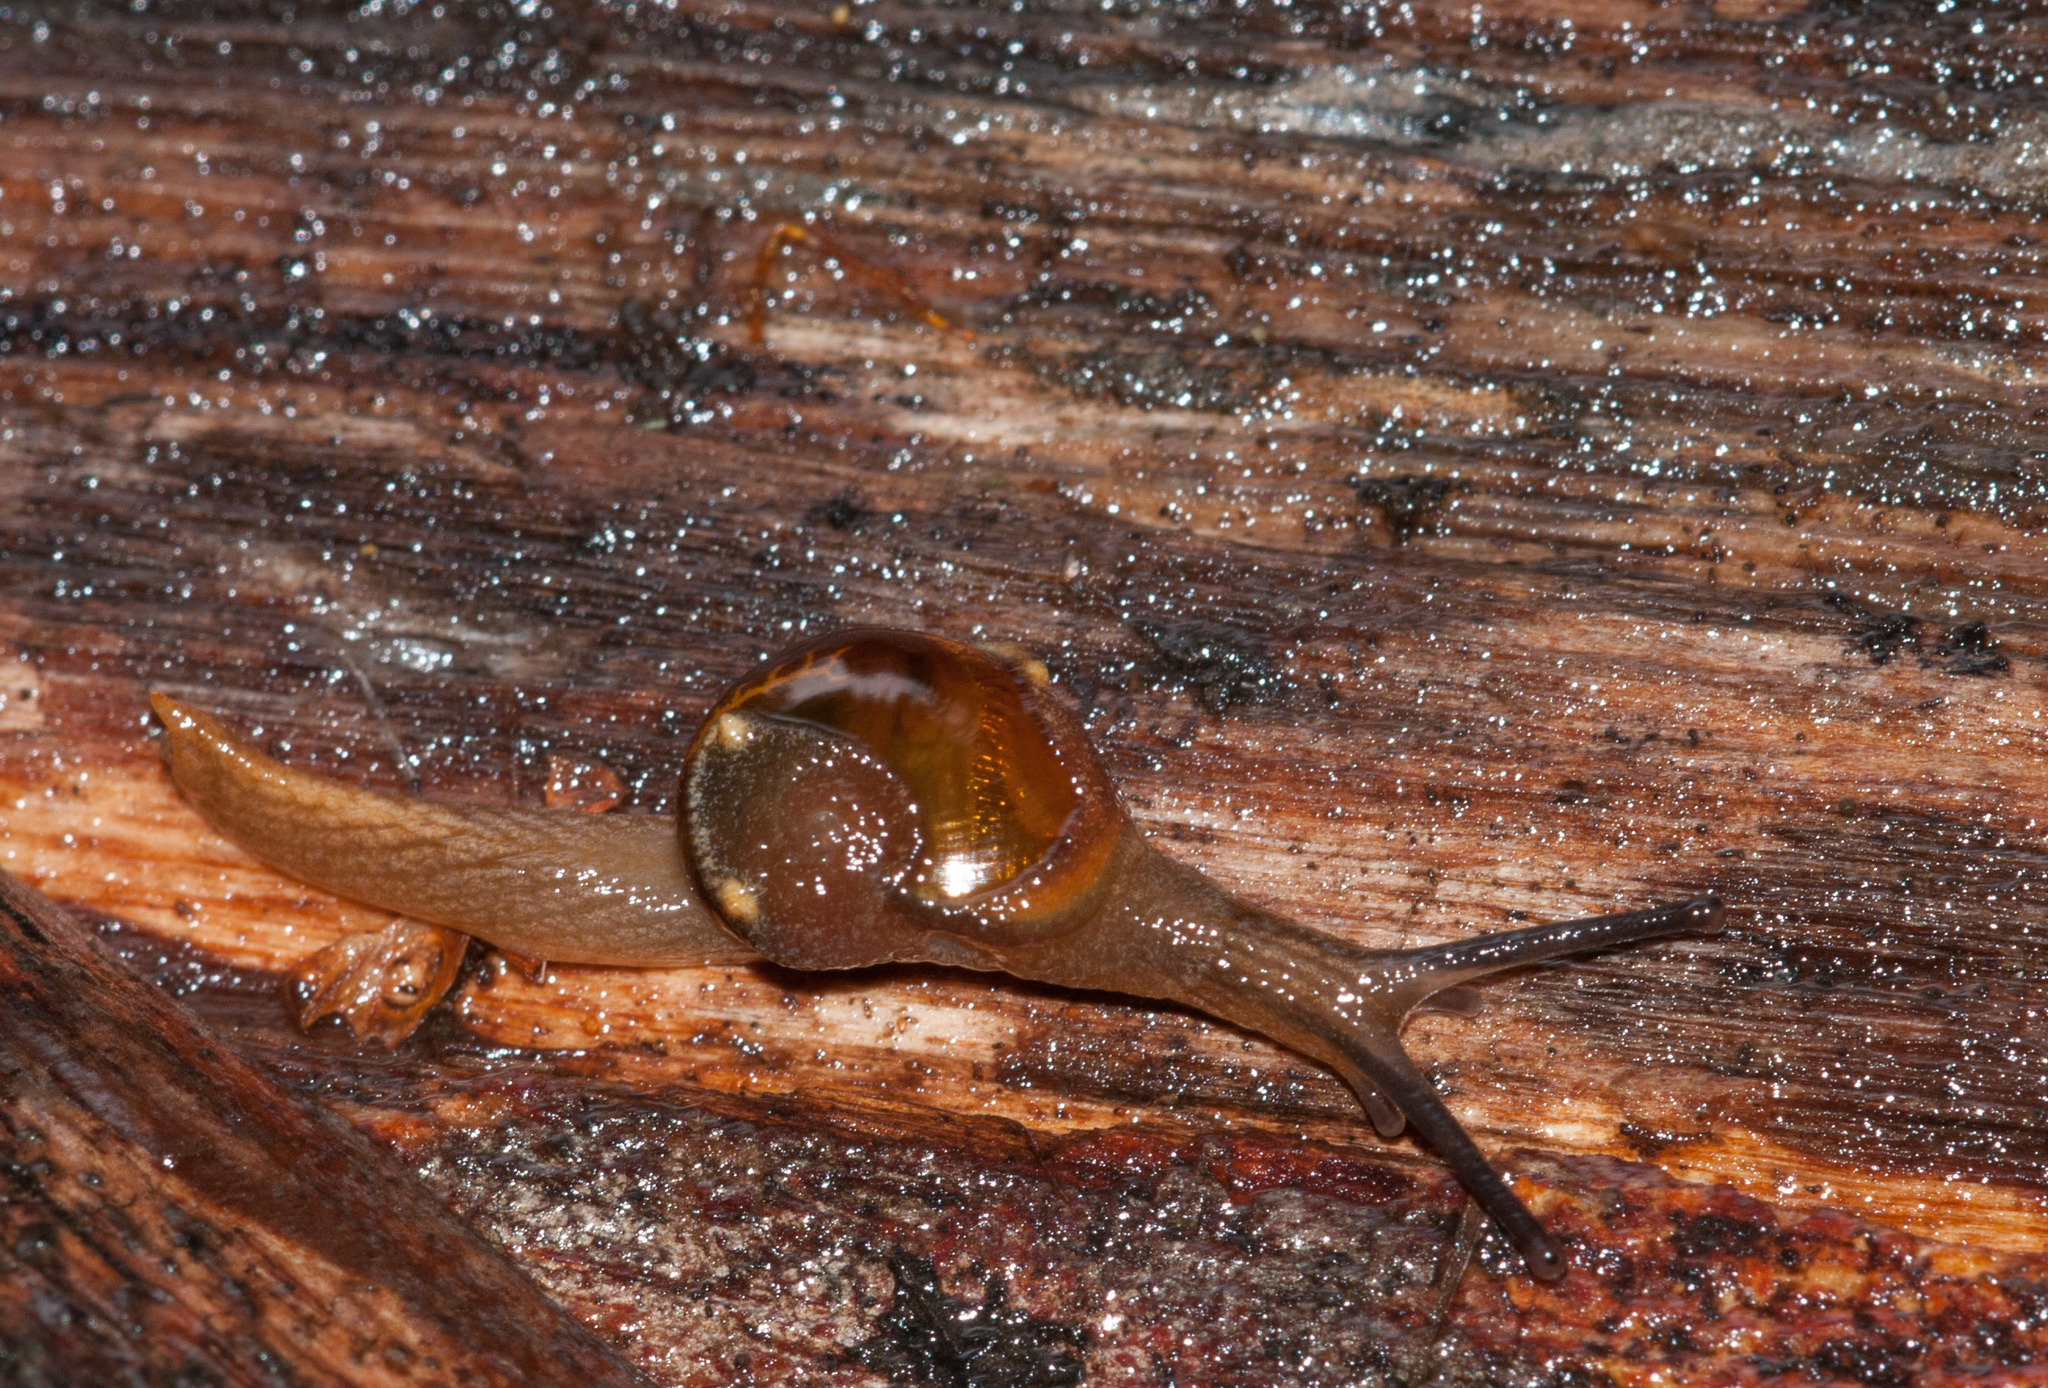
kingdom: Animalia
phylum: Mollusca
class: Gastropoda
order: Stylommatophora
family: Helicarionidae
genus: Helicarion
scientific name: Helicarion cuvieri
